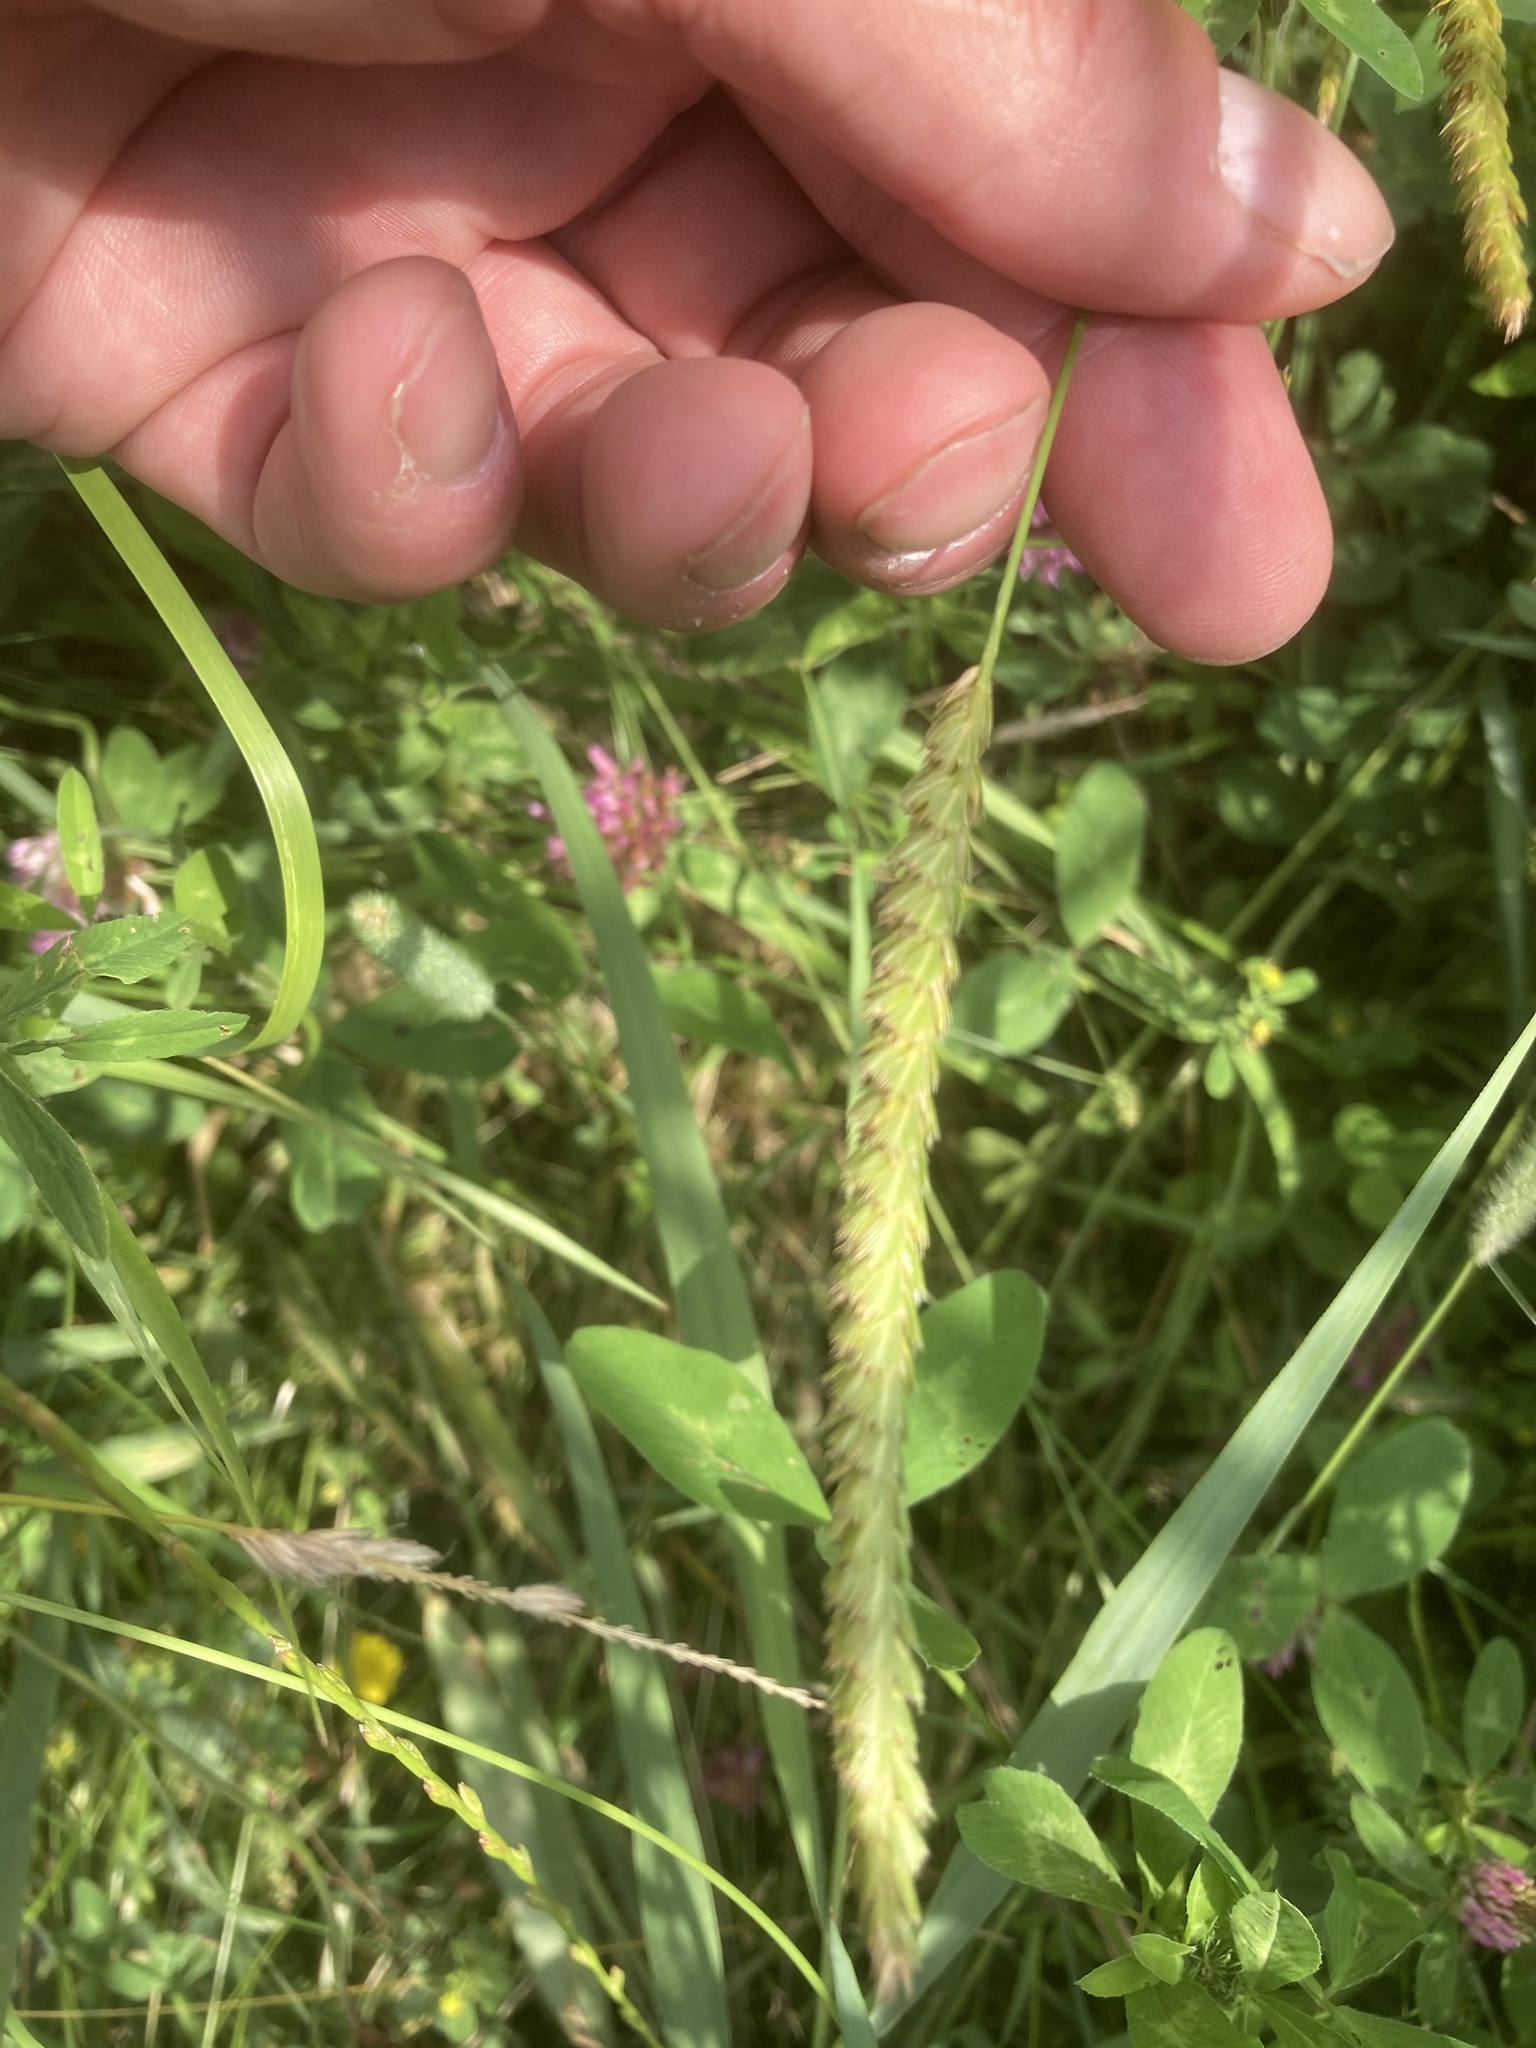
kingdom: Plantae
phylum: Tracheophyta
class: Liliopsida
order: Poales
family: Poaceae
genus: Cynosurus
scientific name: Cynosurus cristatus
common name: Crested dog's-tail
